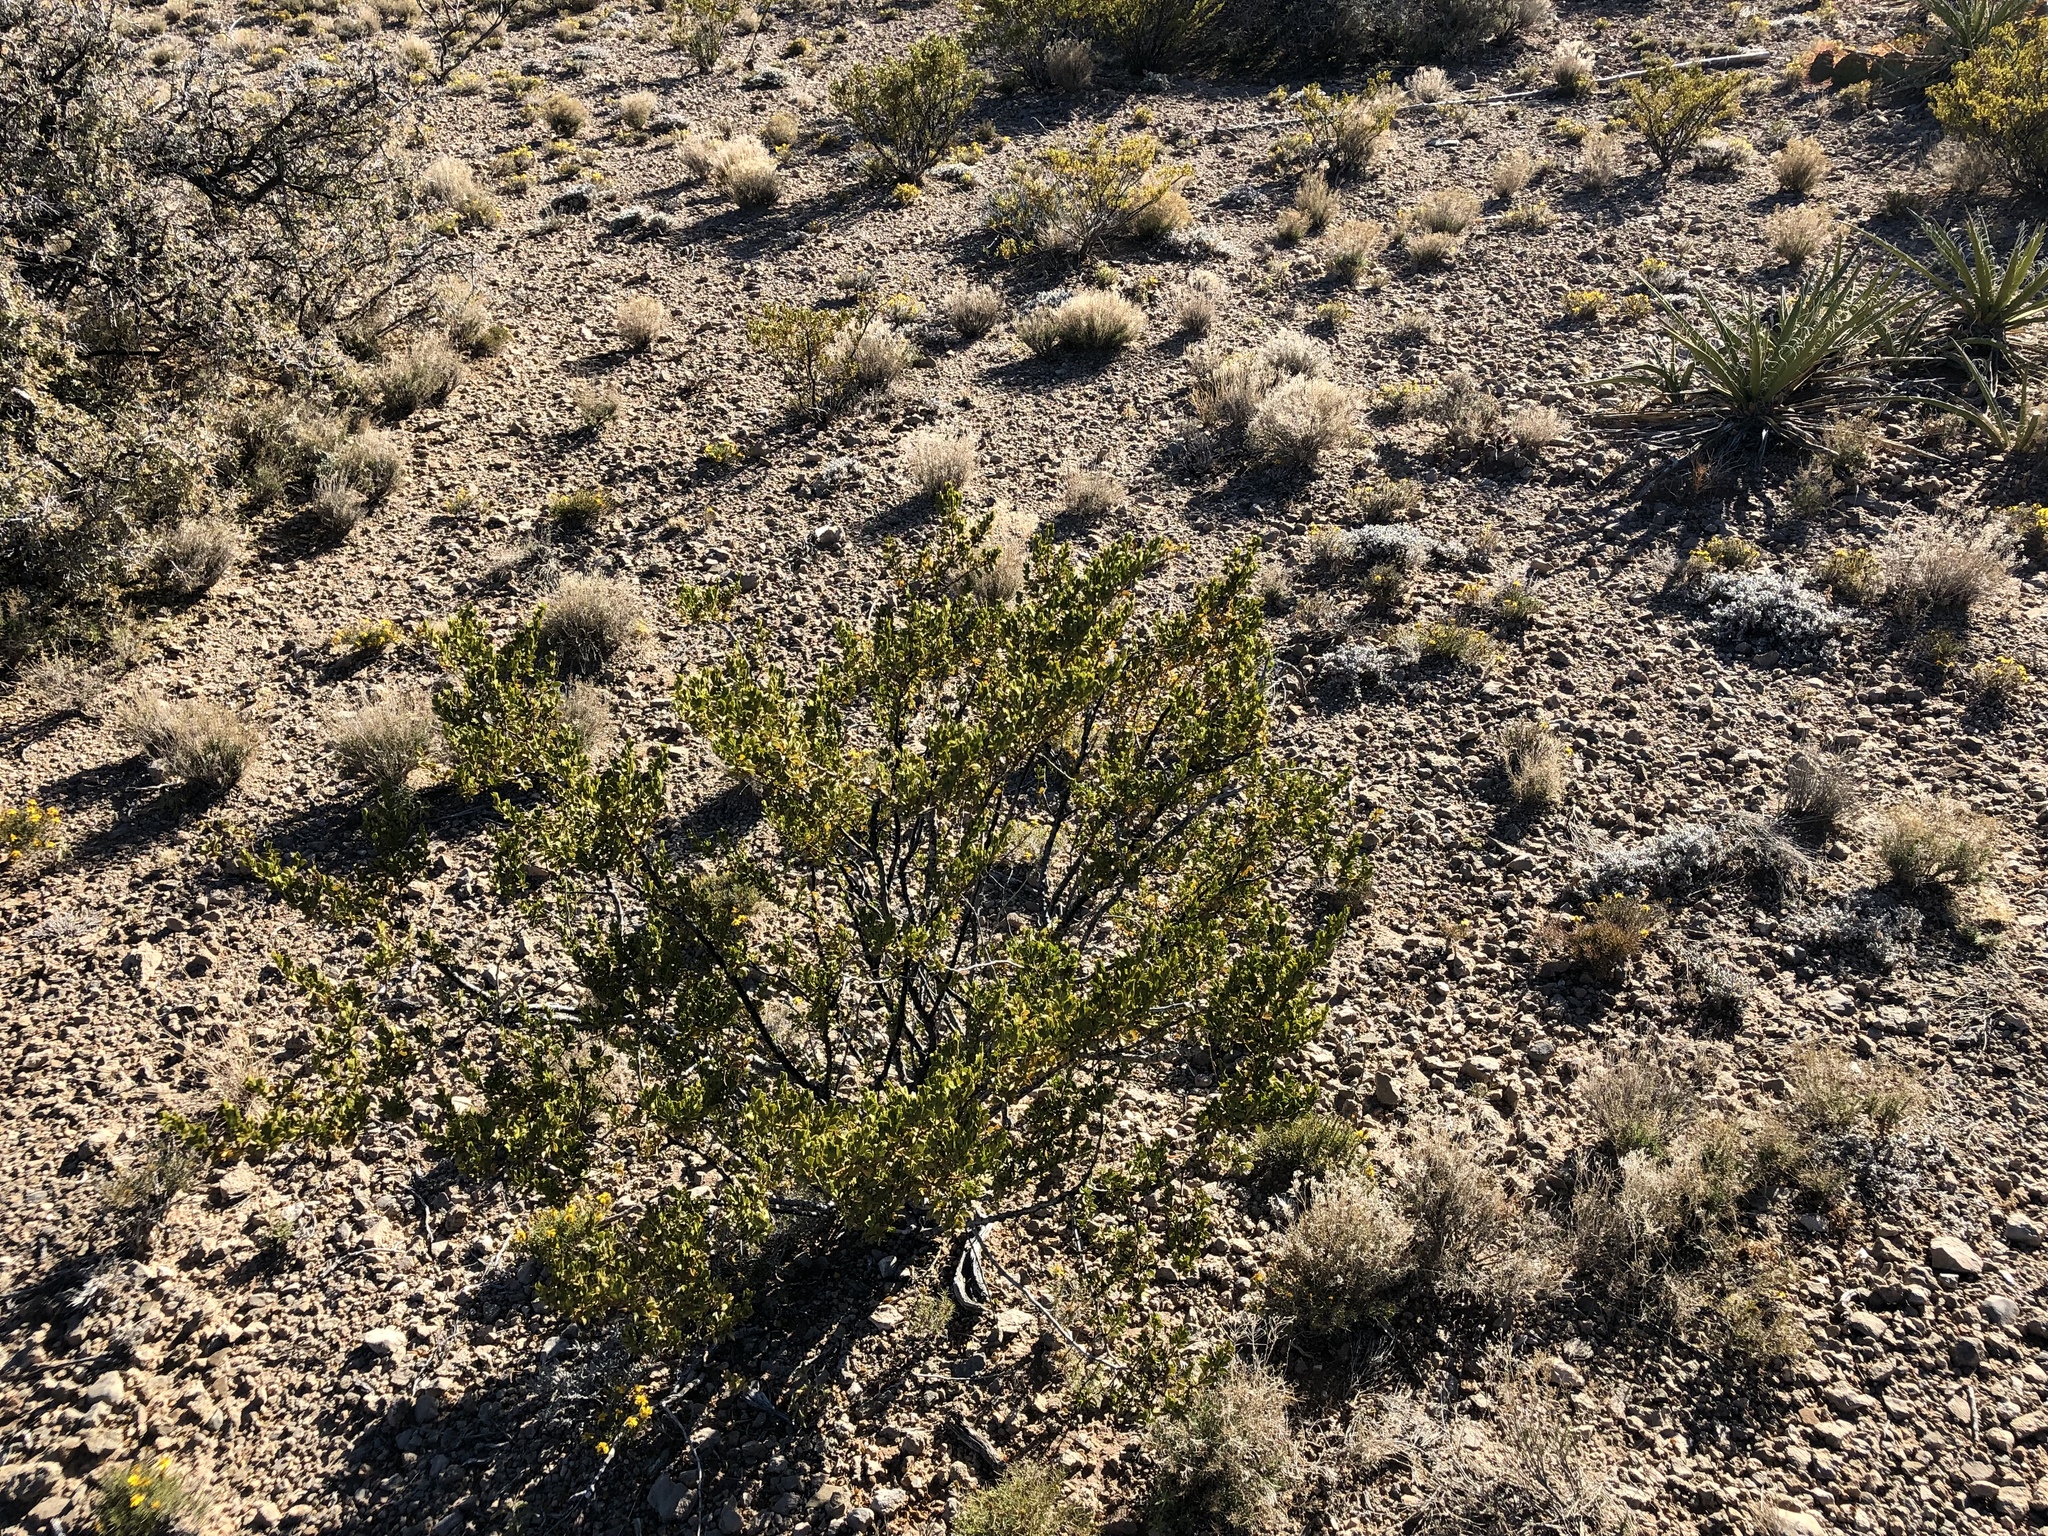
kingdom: Plantae
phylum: Tracheophyta
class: Magnoliopsida
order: Zygophyllales
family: Zygophyllaceae
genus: Larrea
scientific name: Larrea tridentata
